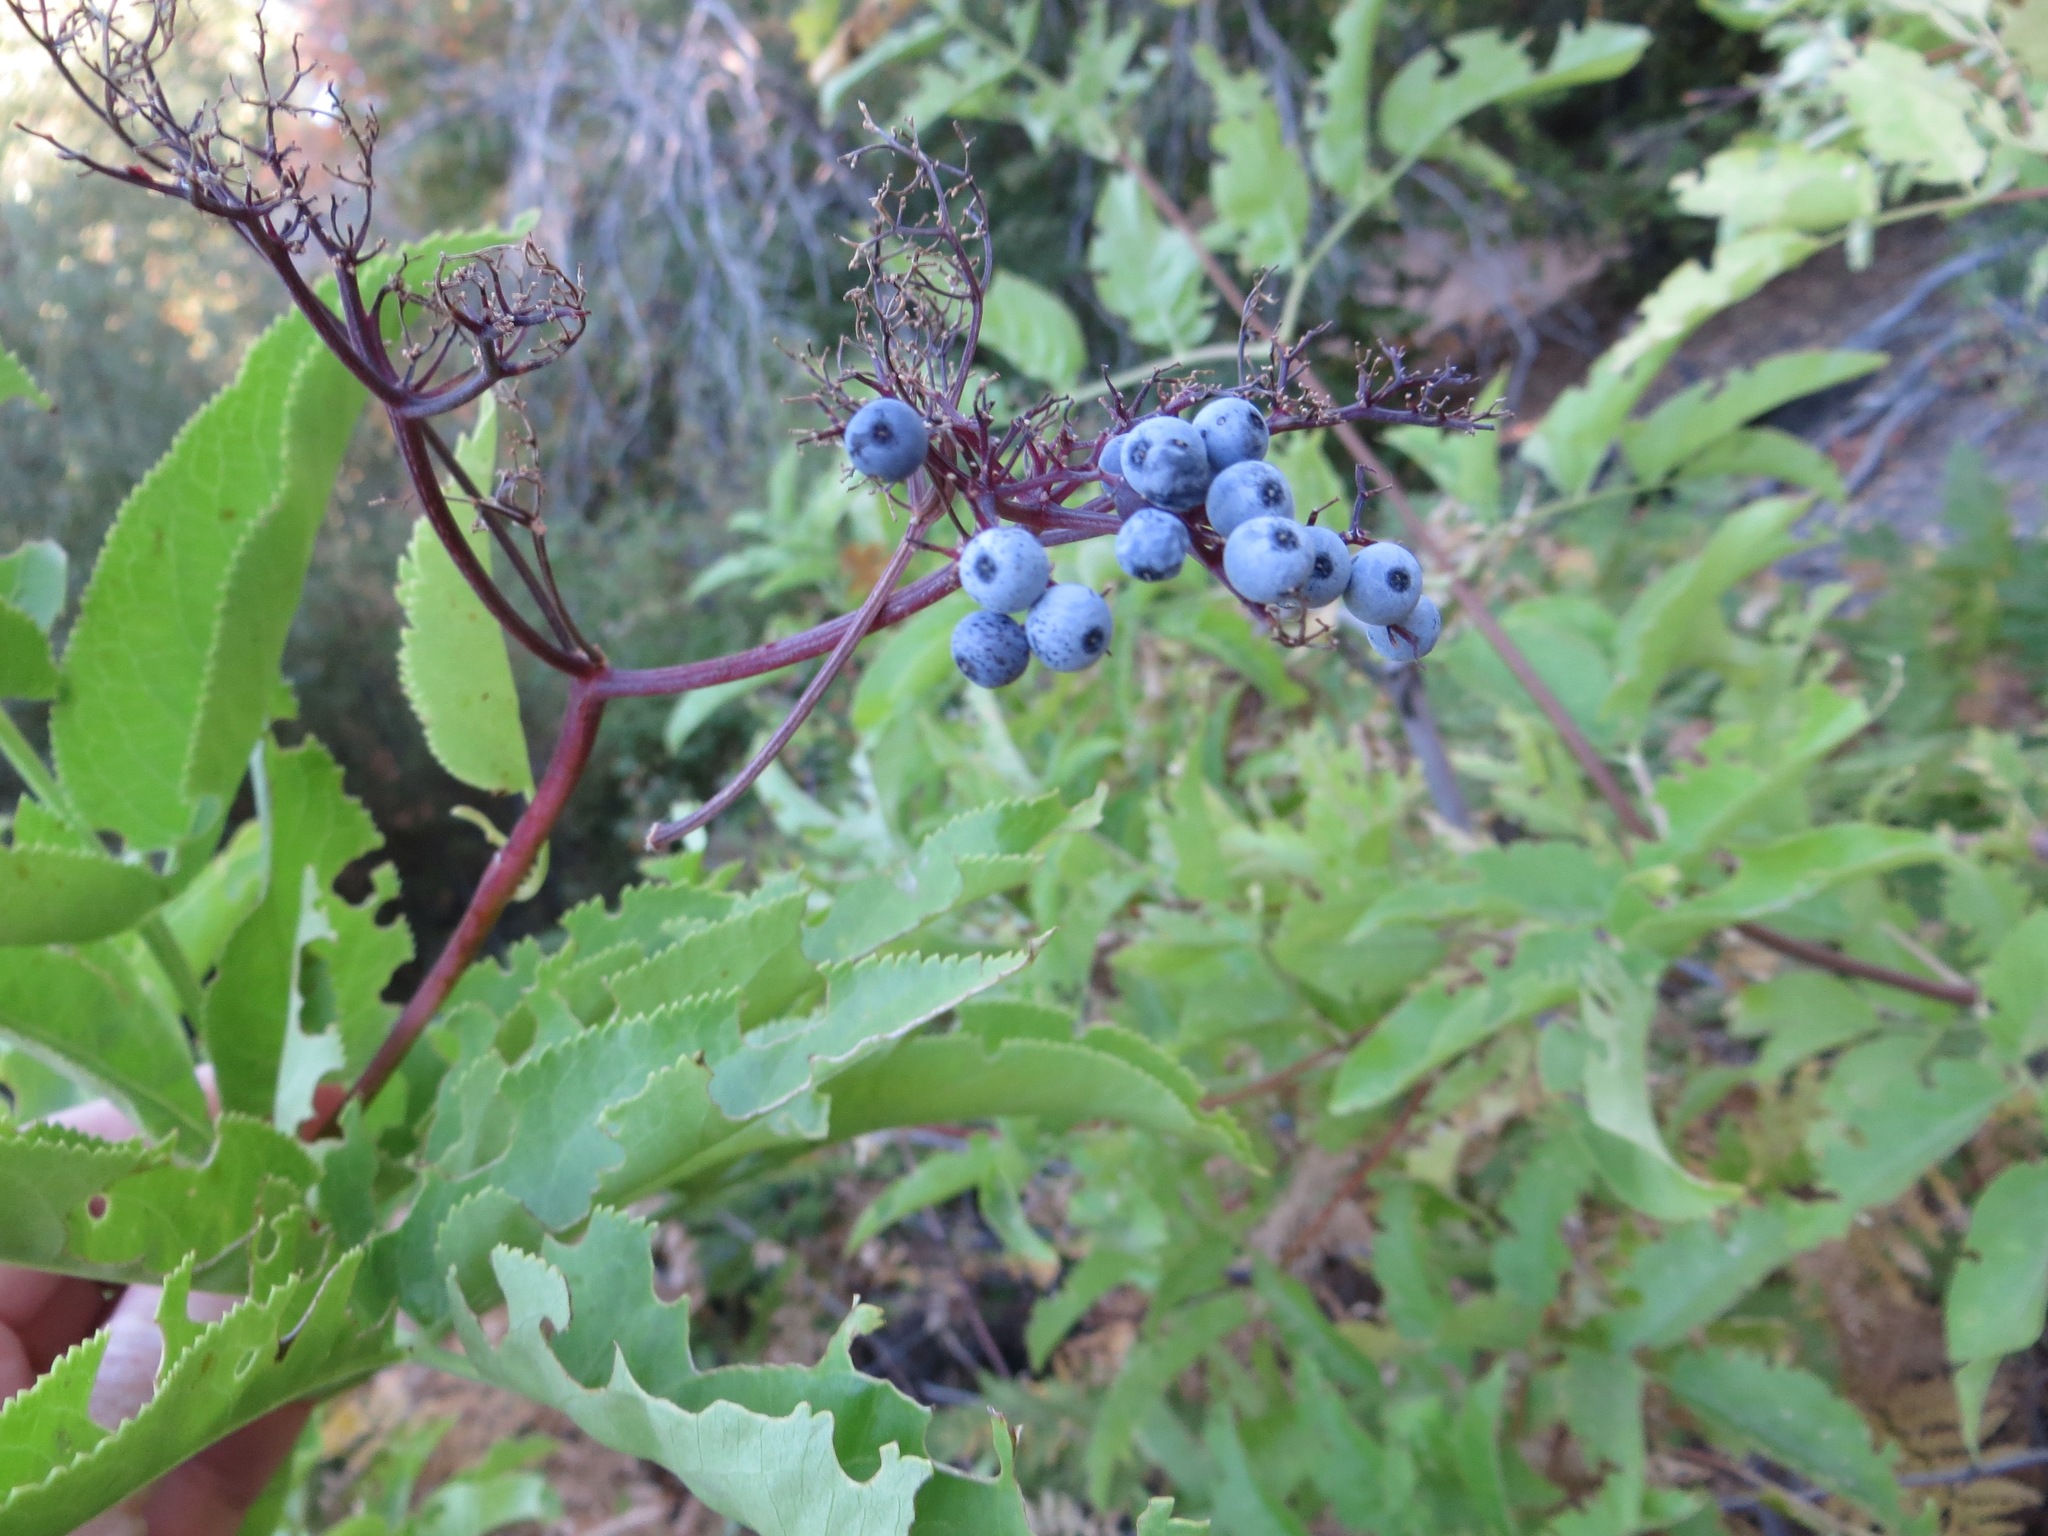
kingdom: Plantae
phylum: Tracheophyta
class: Magnoliopsida
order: Dipsacales
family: Viburnaceae
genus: Sambucus
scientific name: Sambucus cerulea
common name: Blue elder
